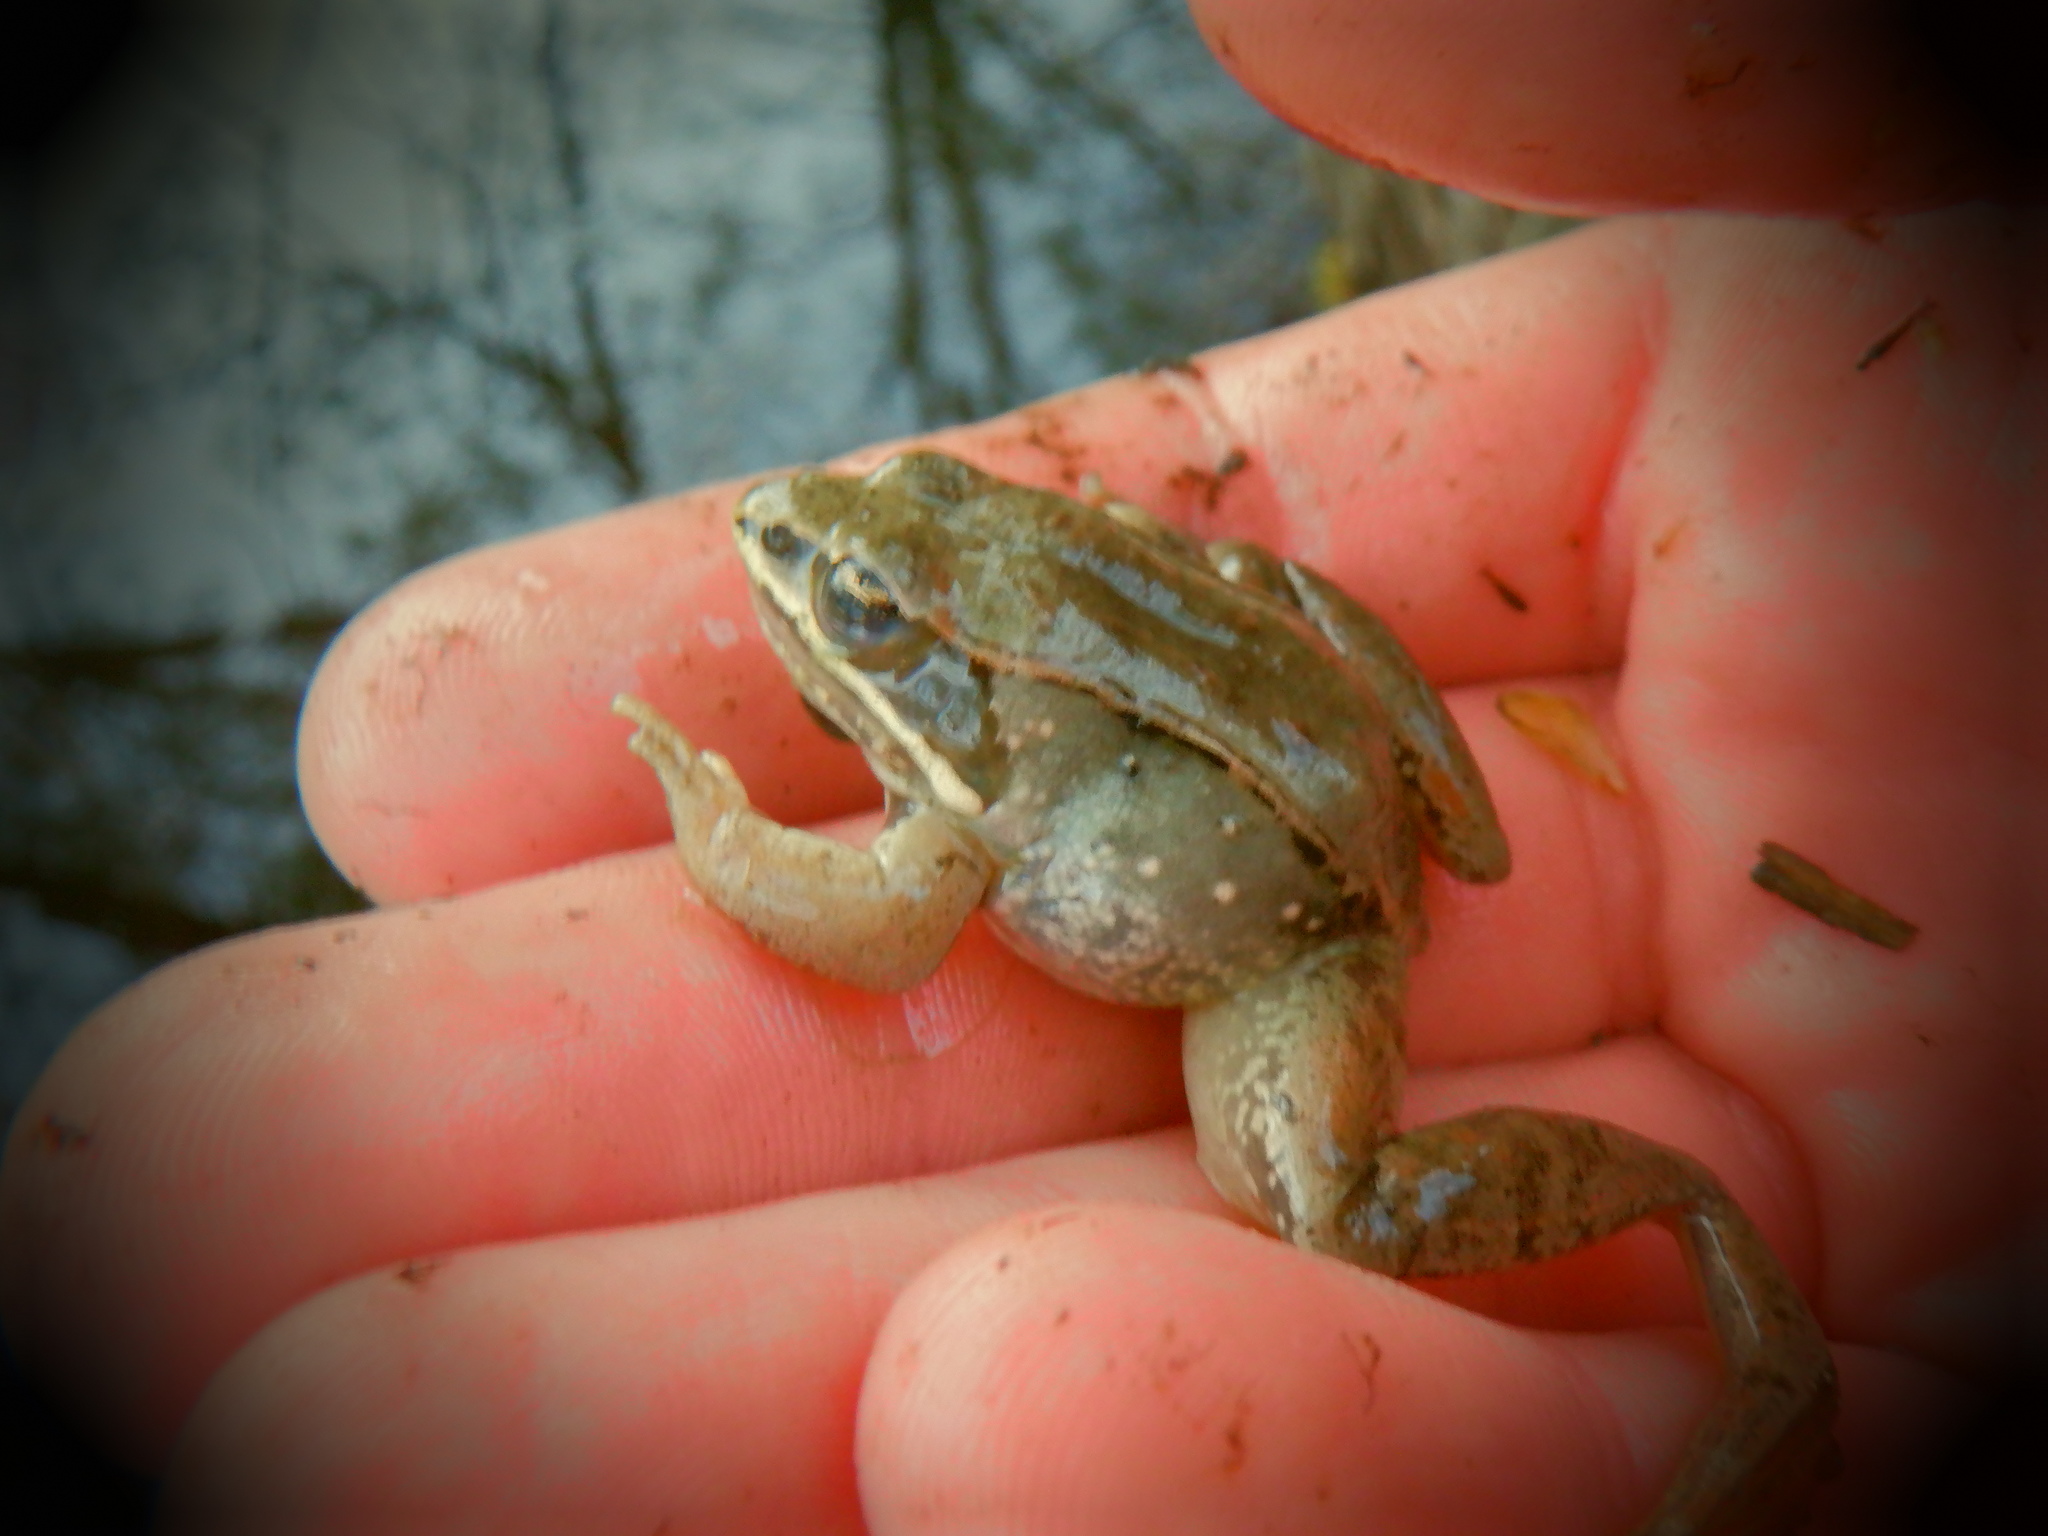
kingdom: Animalia
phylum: Chordata
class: Amphibia
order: Anura
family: Ranidae
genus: Lithobates
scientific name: Lithobates sylvaticus
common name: Wood frog
